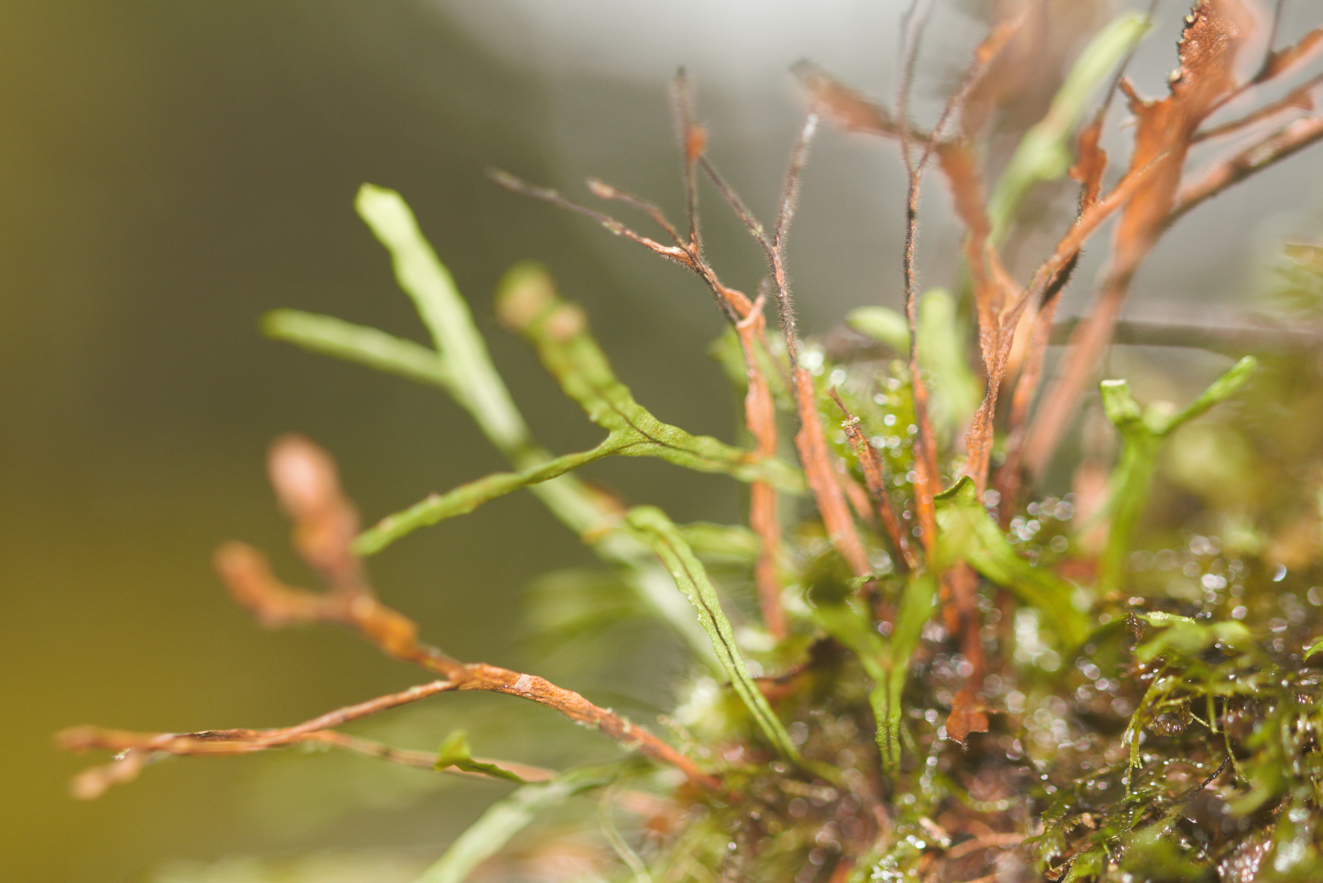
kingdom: Plantae
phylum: Tracheophyta
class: Polypodiopsida
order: Polypodiales
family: Polypodiaceae
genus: Cochlidium
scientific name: Cochlidium furcatum
